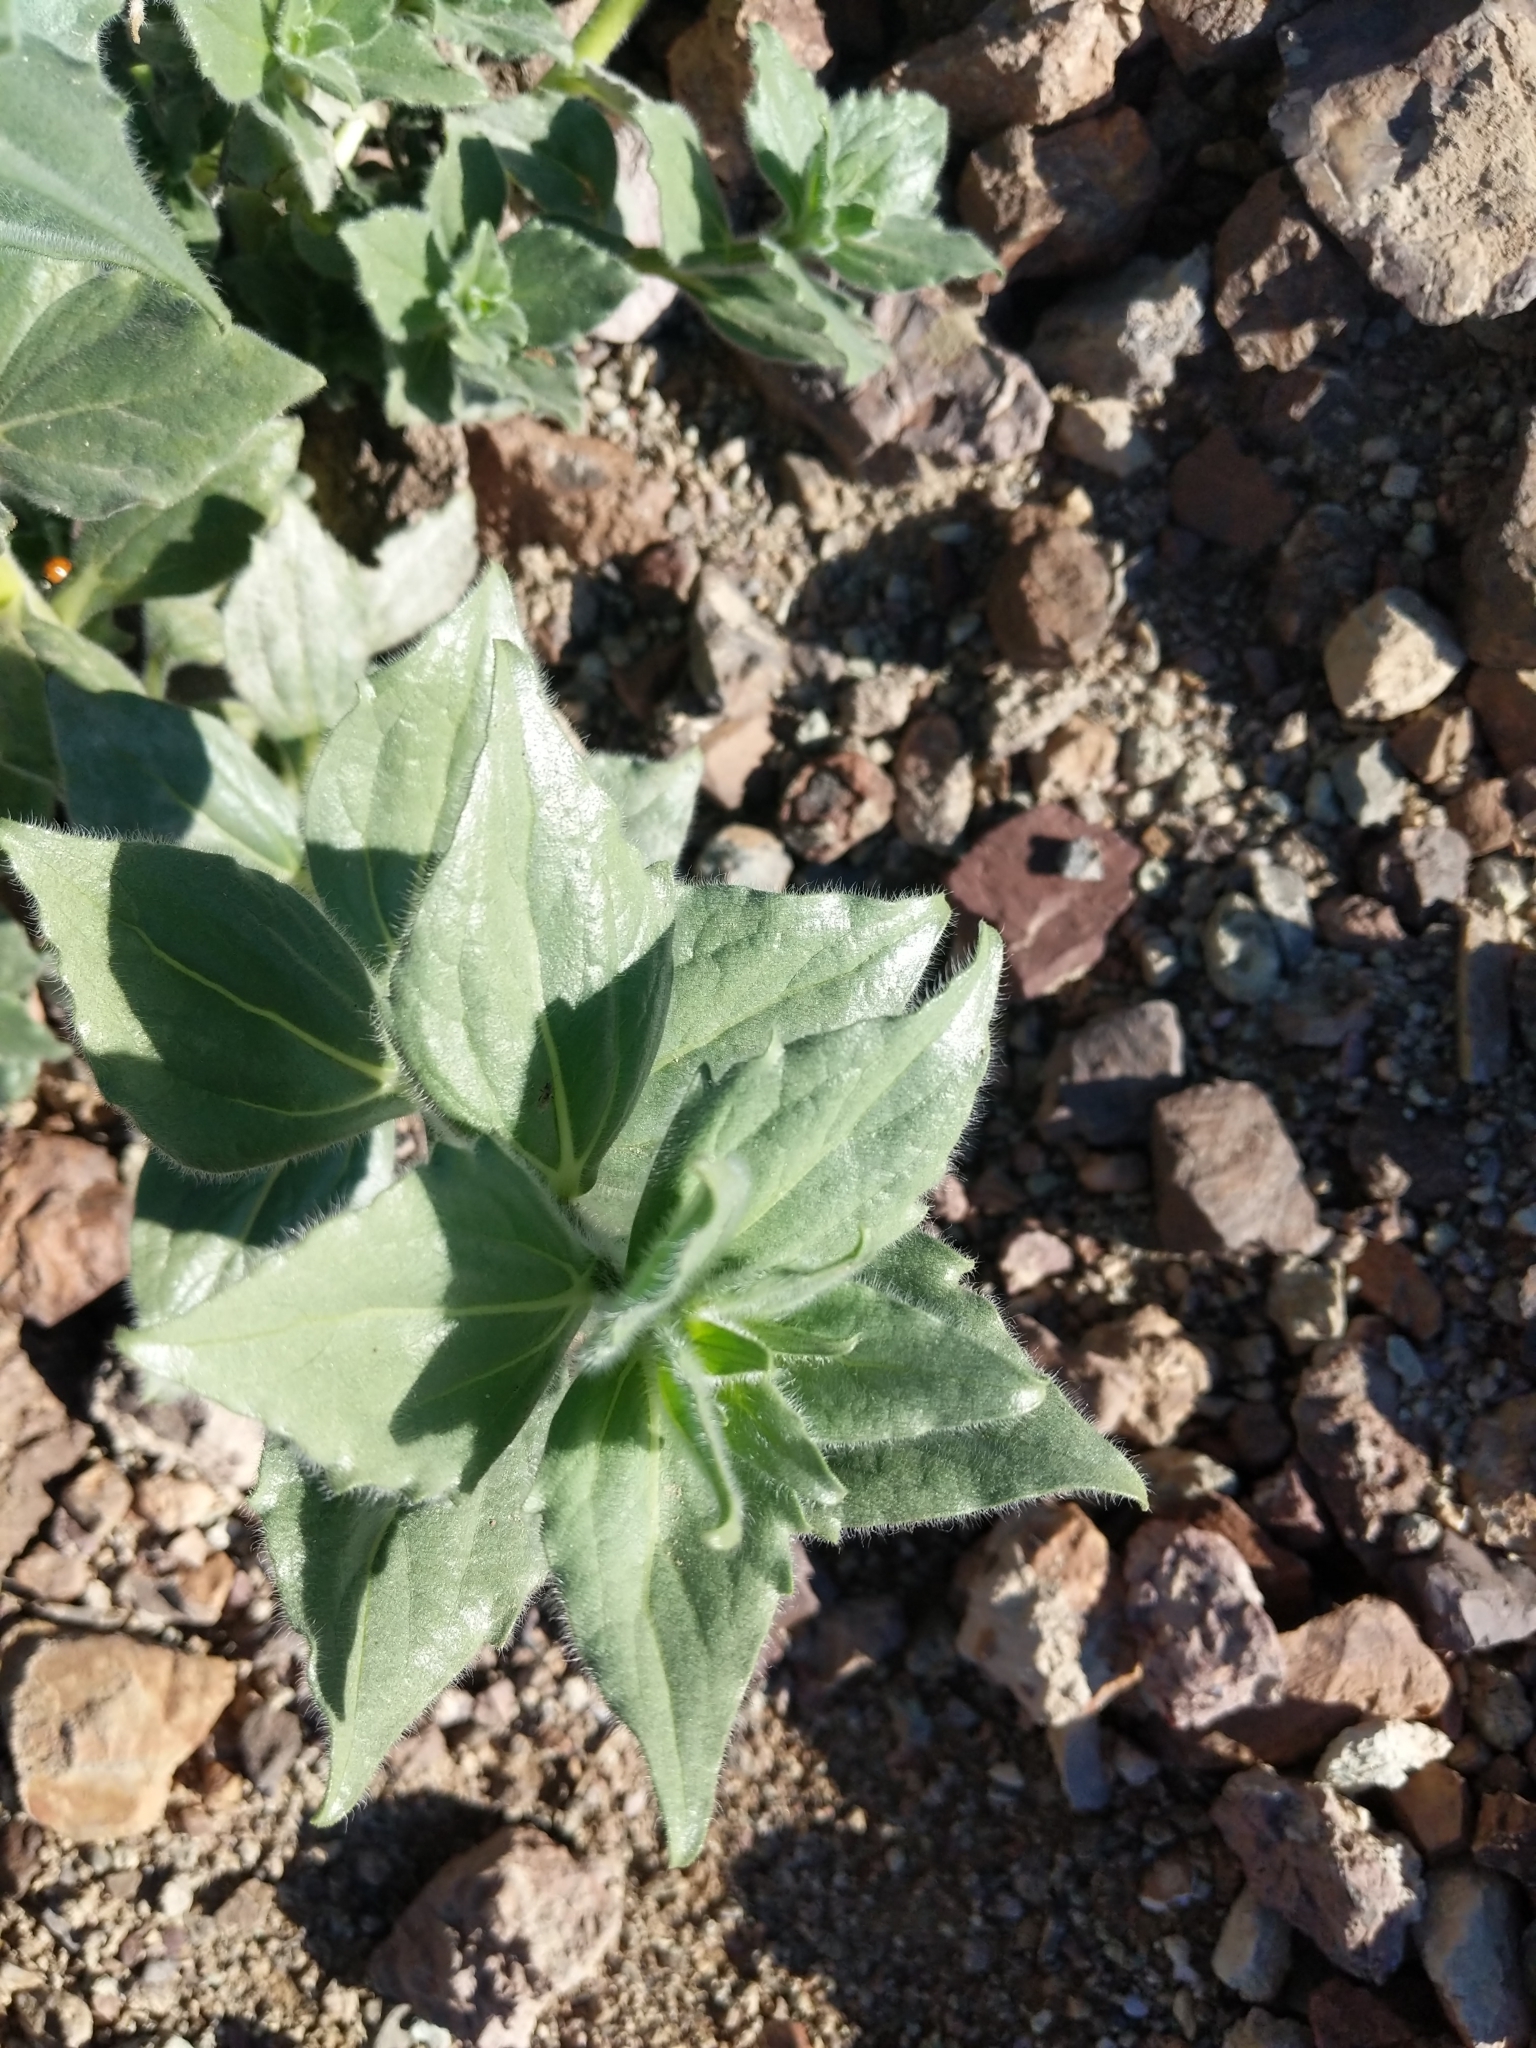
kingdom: Plantae
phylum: Tracheophyta
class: Magnoliopsida
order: Asterales
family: Asteraceae
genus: Geraea
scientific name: Geraea canescens
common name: Desert-gold
